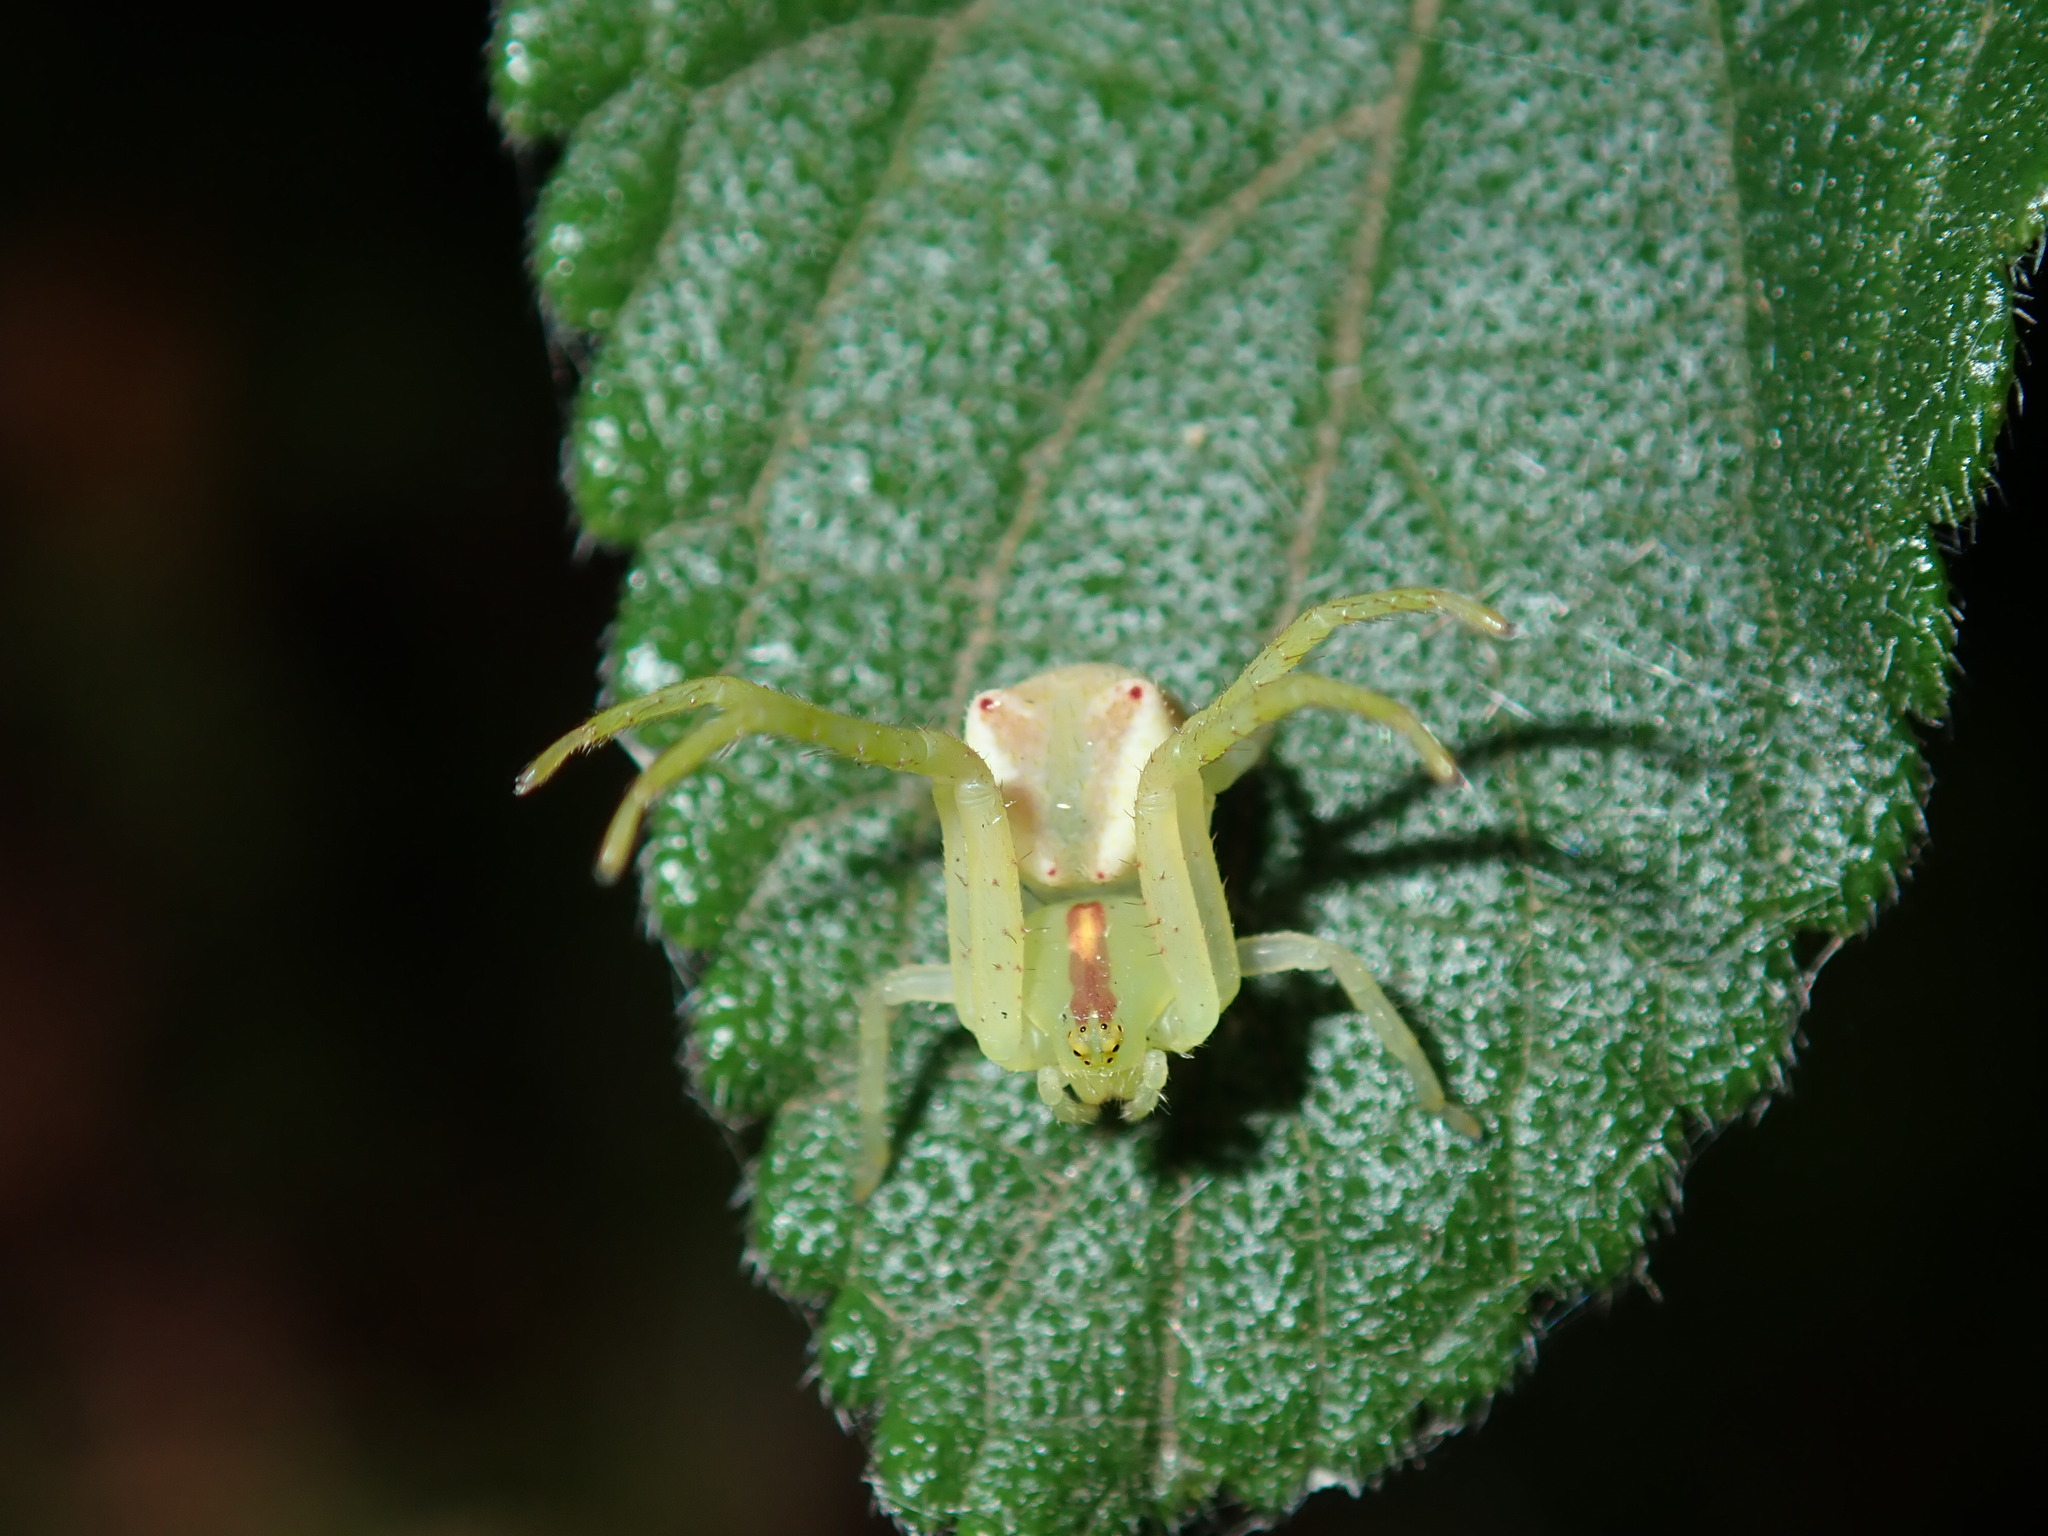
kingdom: Animalia
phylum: Arthropoda
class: Arachnida
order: Araneae
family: Thomisidae
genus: Sidymella
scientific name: Sidymella rubrosignata
